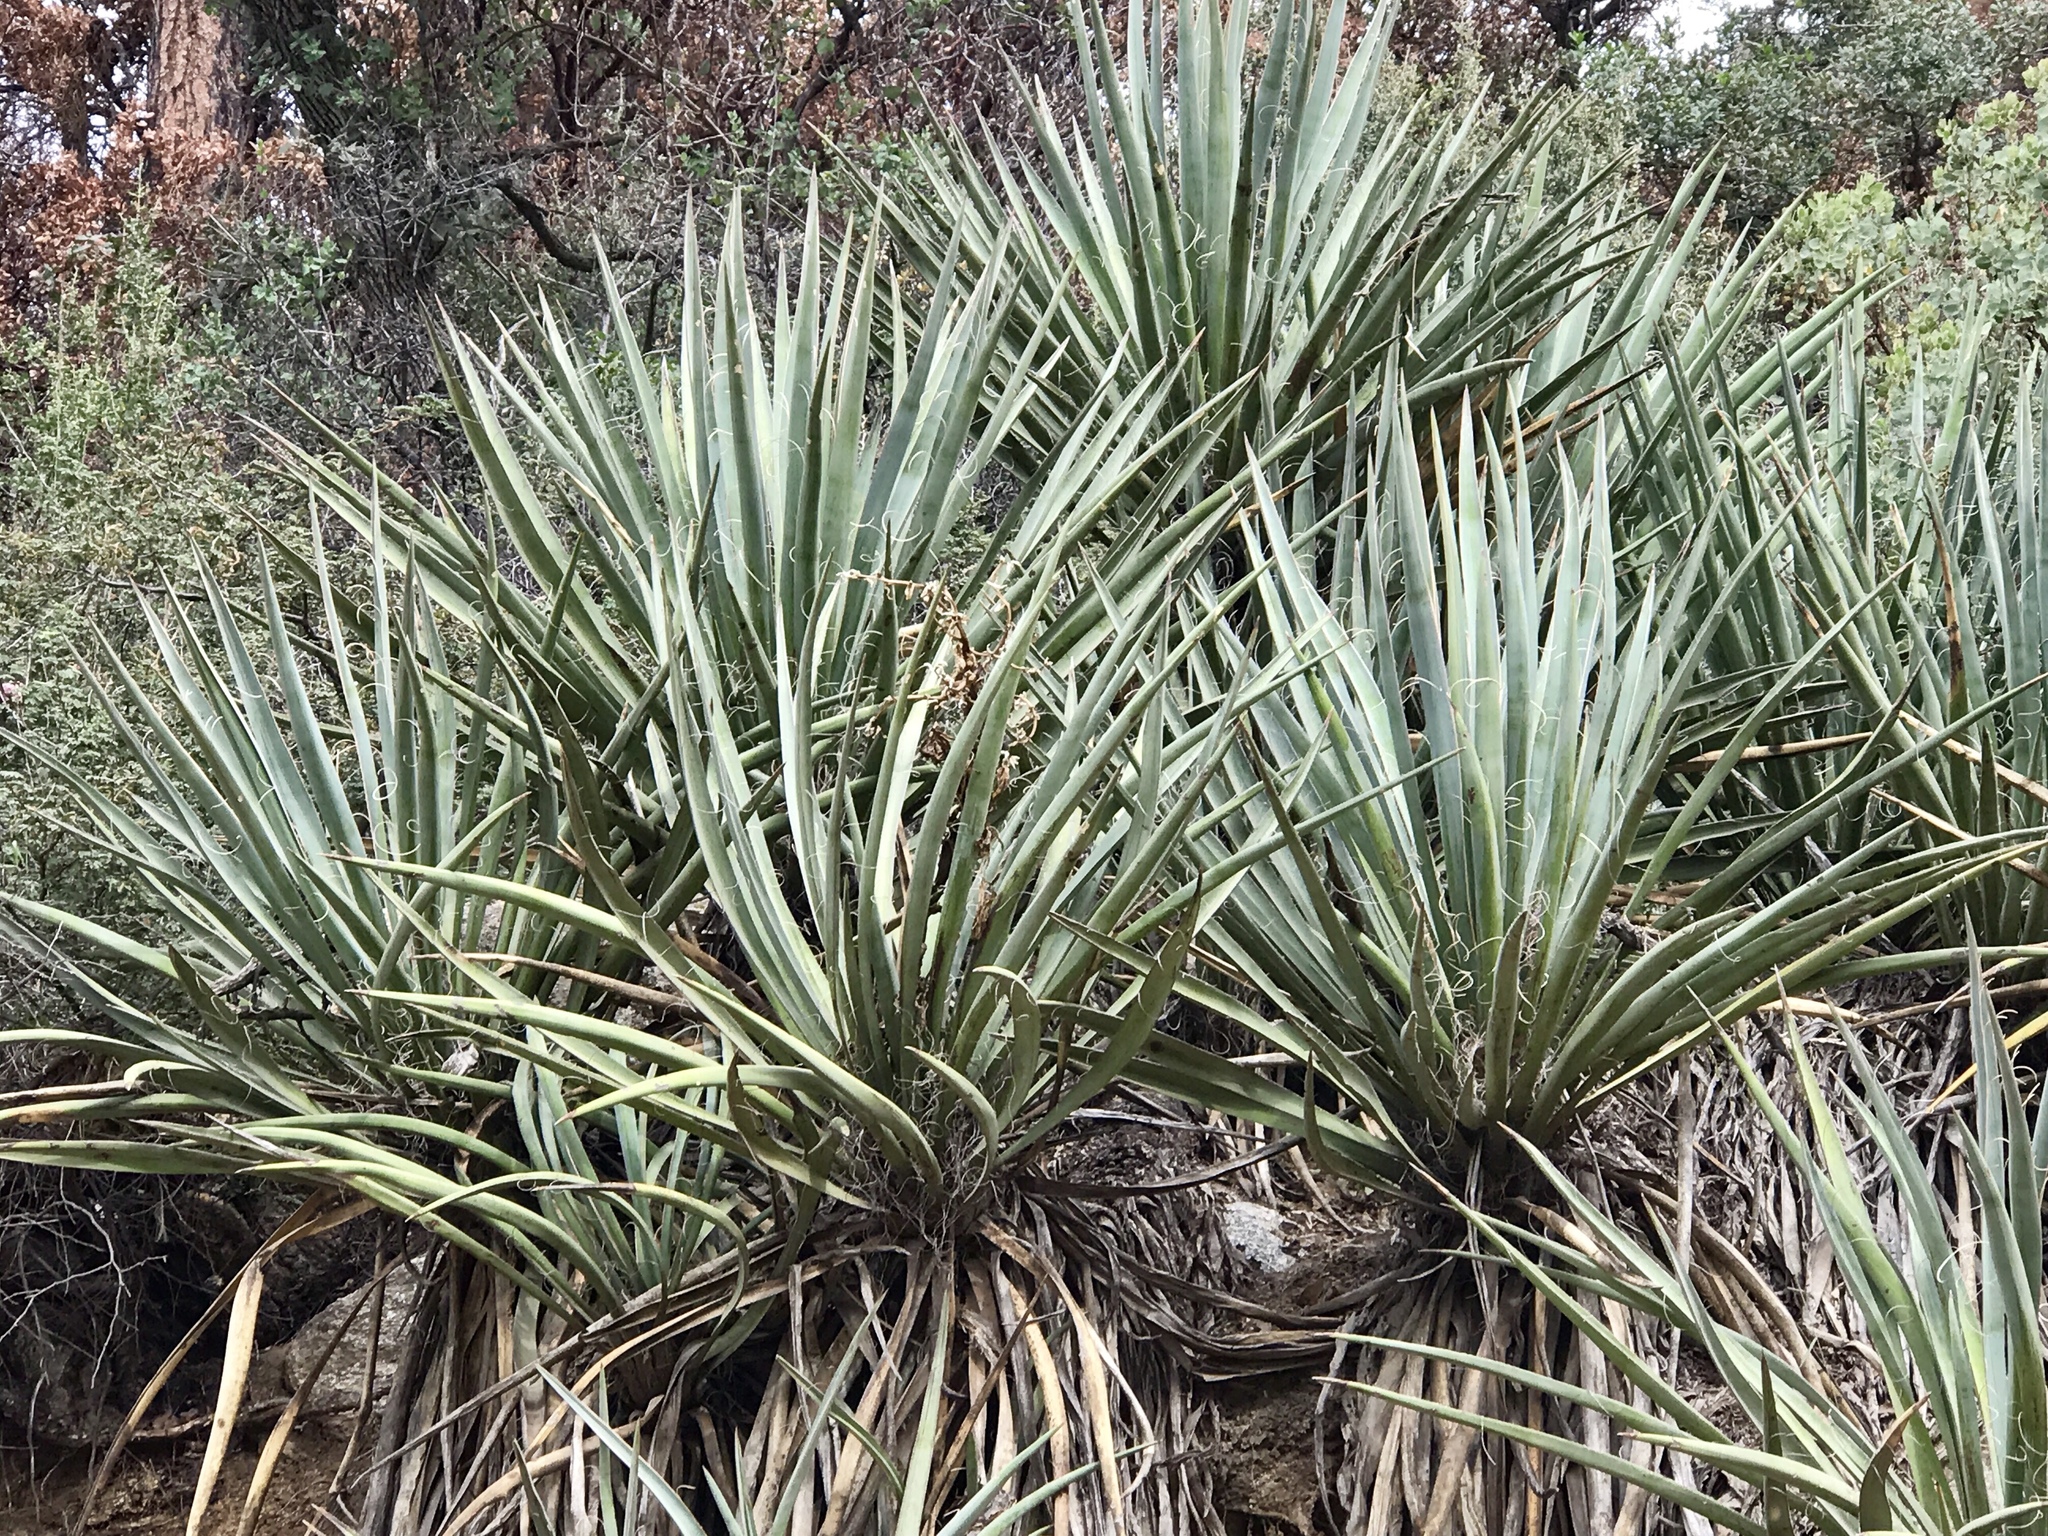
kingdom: Plantae
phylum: Tracheophyta
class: Liliopsida
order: Asparagales
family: Asparagaceae
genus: Yucca
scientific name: Yucca baccata
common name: Banana yucca
